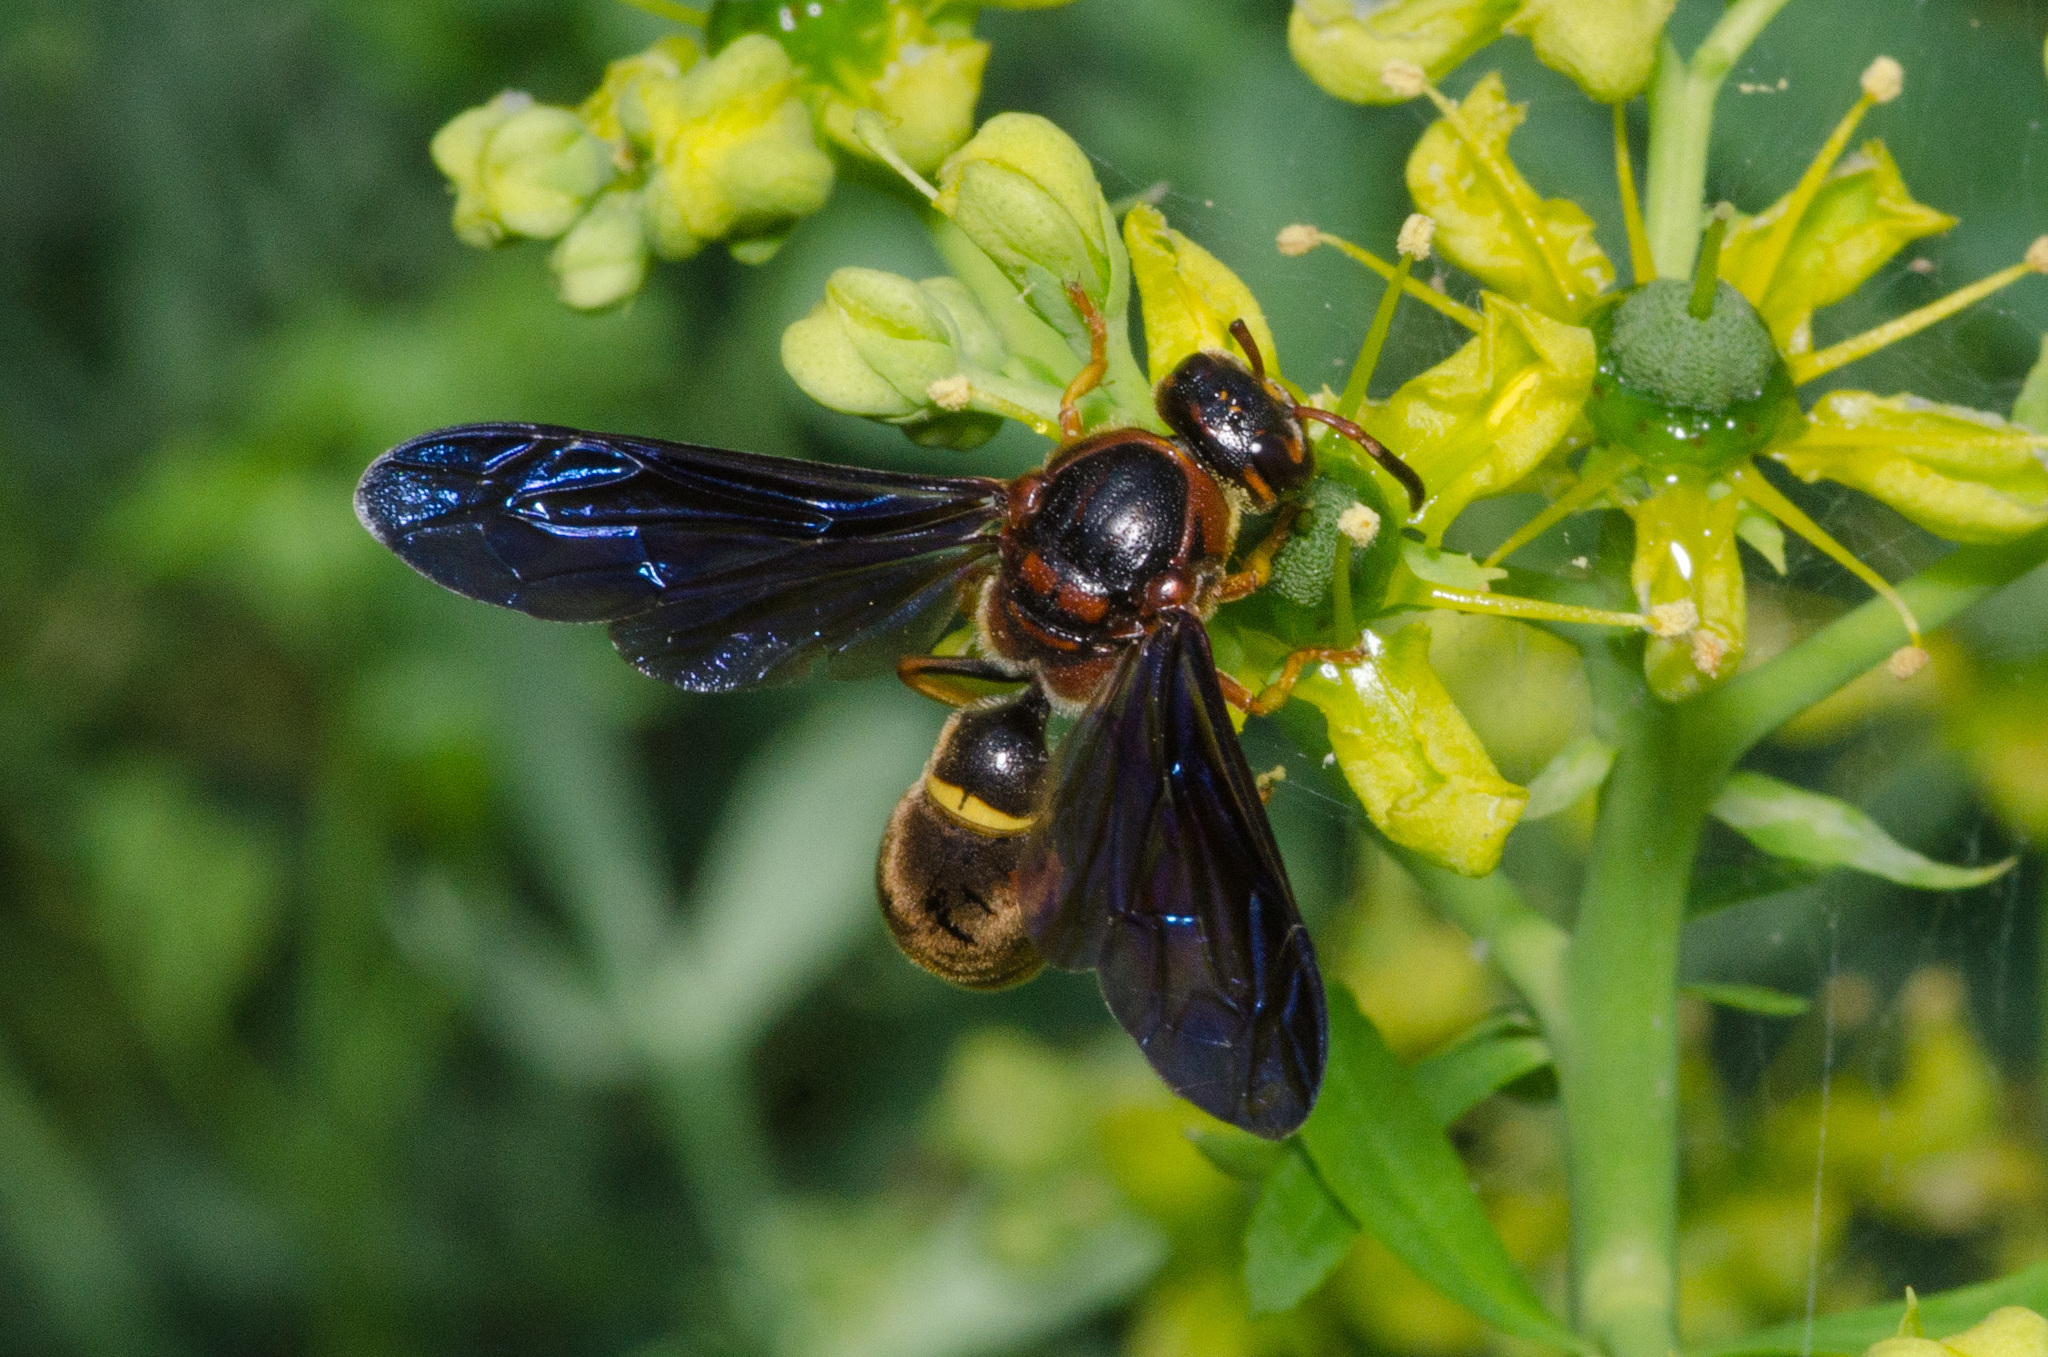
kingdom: Animalia
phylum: Arthropoda
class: Insecta
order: Hymenoptera
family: Eumenidae
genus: Parazumia
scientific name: Parazumia tolteca
